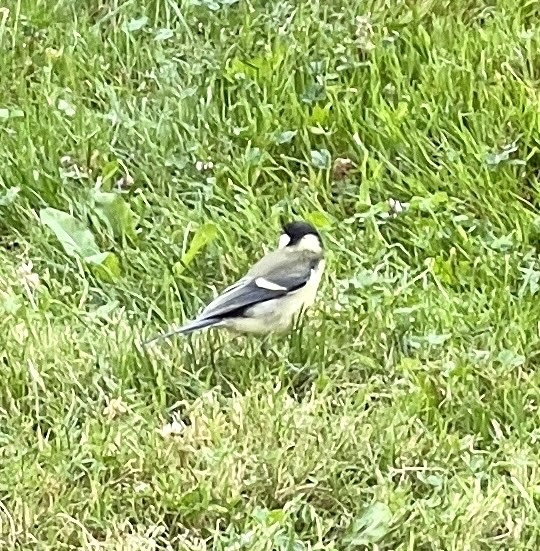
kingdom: Animalia
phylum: Chordata
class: Aves
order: Passeriformes
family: Paridae
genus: Parus
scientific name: Parus major
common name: Great tit
